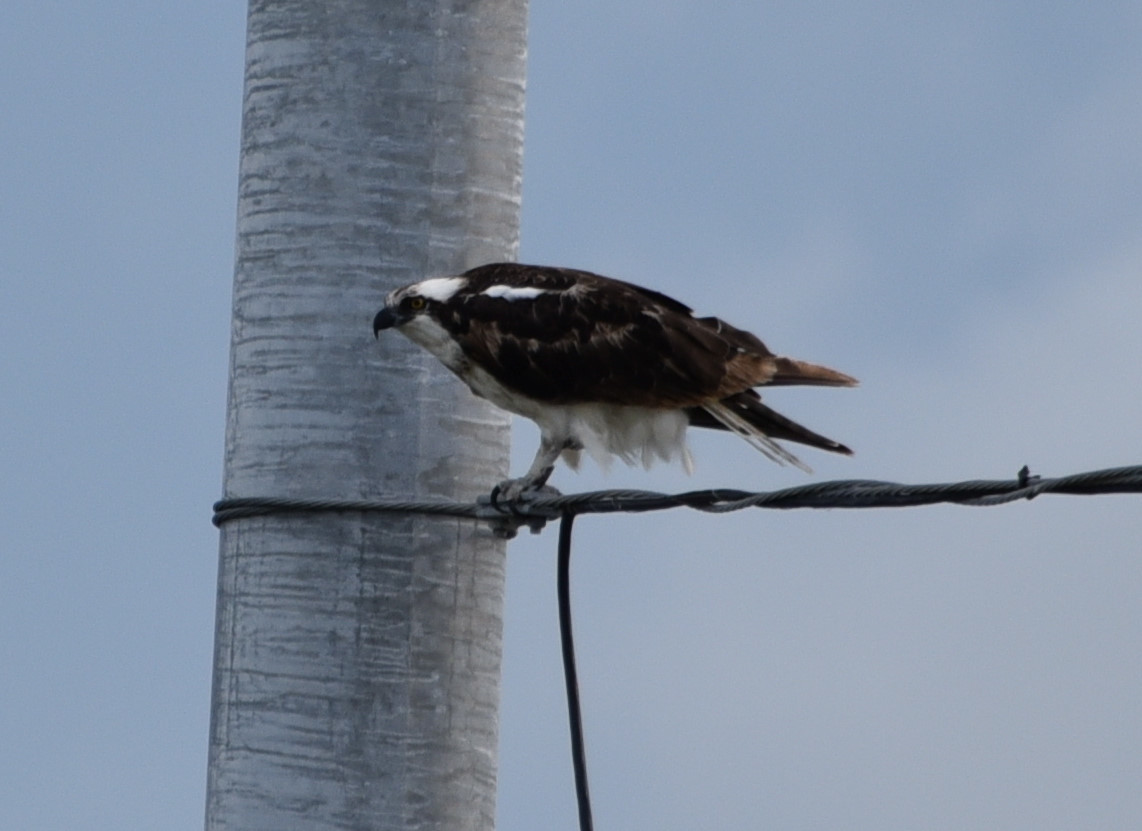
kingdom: Animalia
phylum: Chordata
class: Aves
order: Accipitriformes
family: Pandionidae
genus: Pandion
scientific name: Pandion haliaetus
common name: Osprey
